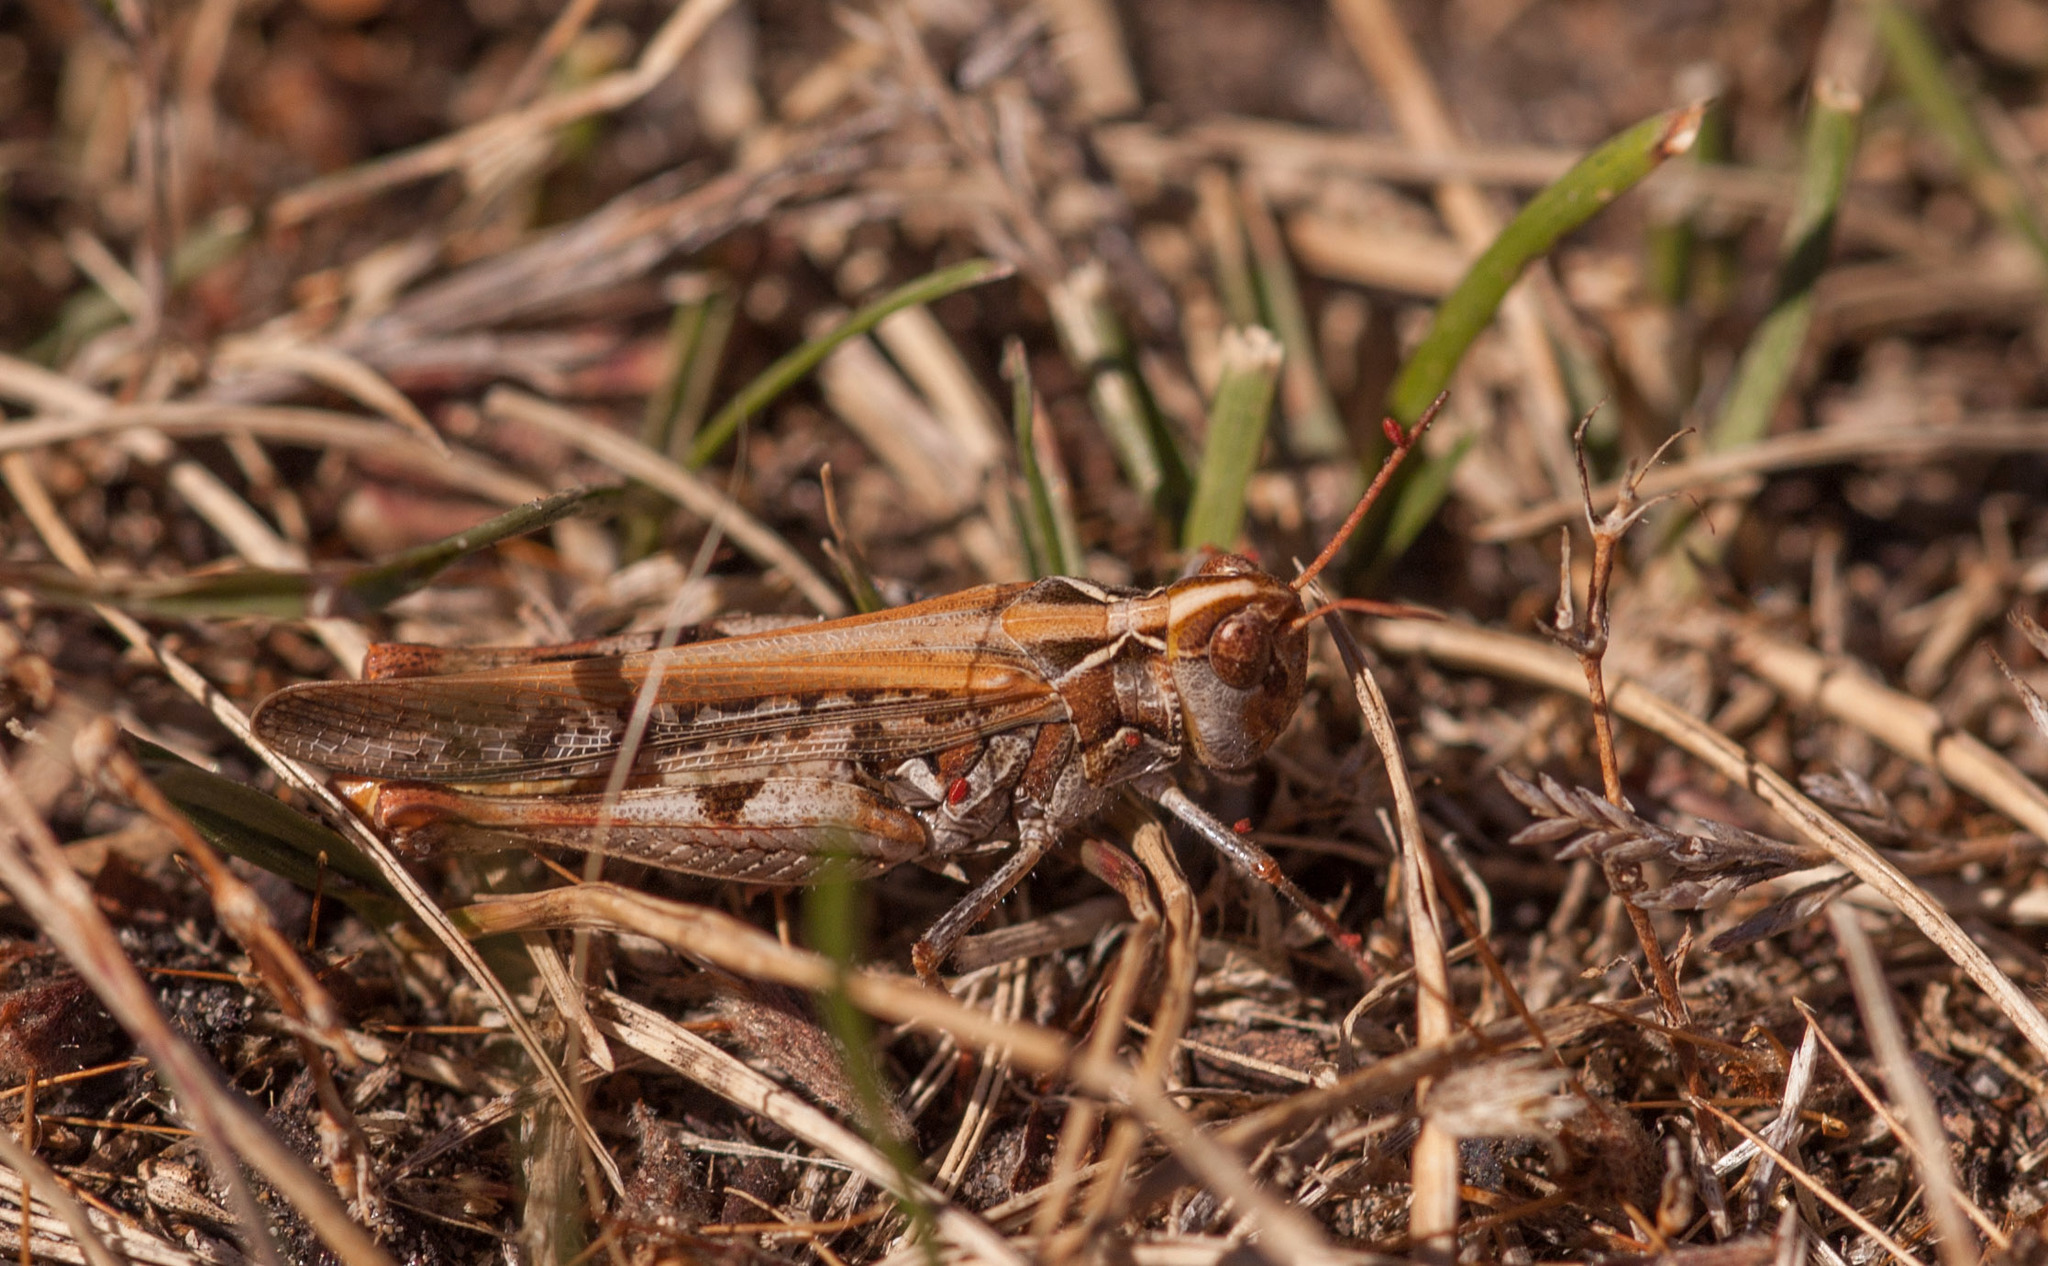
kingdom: Animalia
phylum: Arthropoda
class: Insecta
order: Orthoptera
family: Acrididae
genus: Austroicetes
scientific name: Austroicetes
